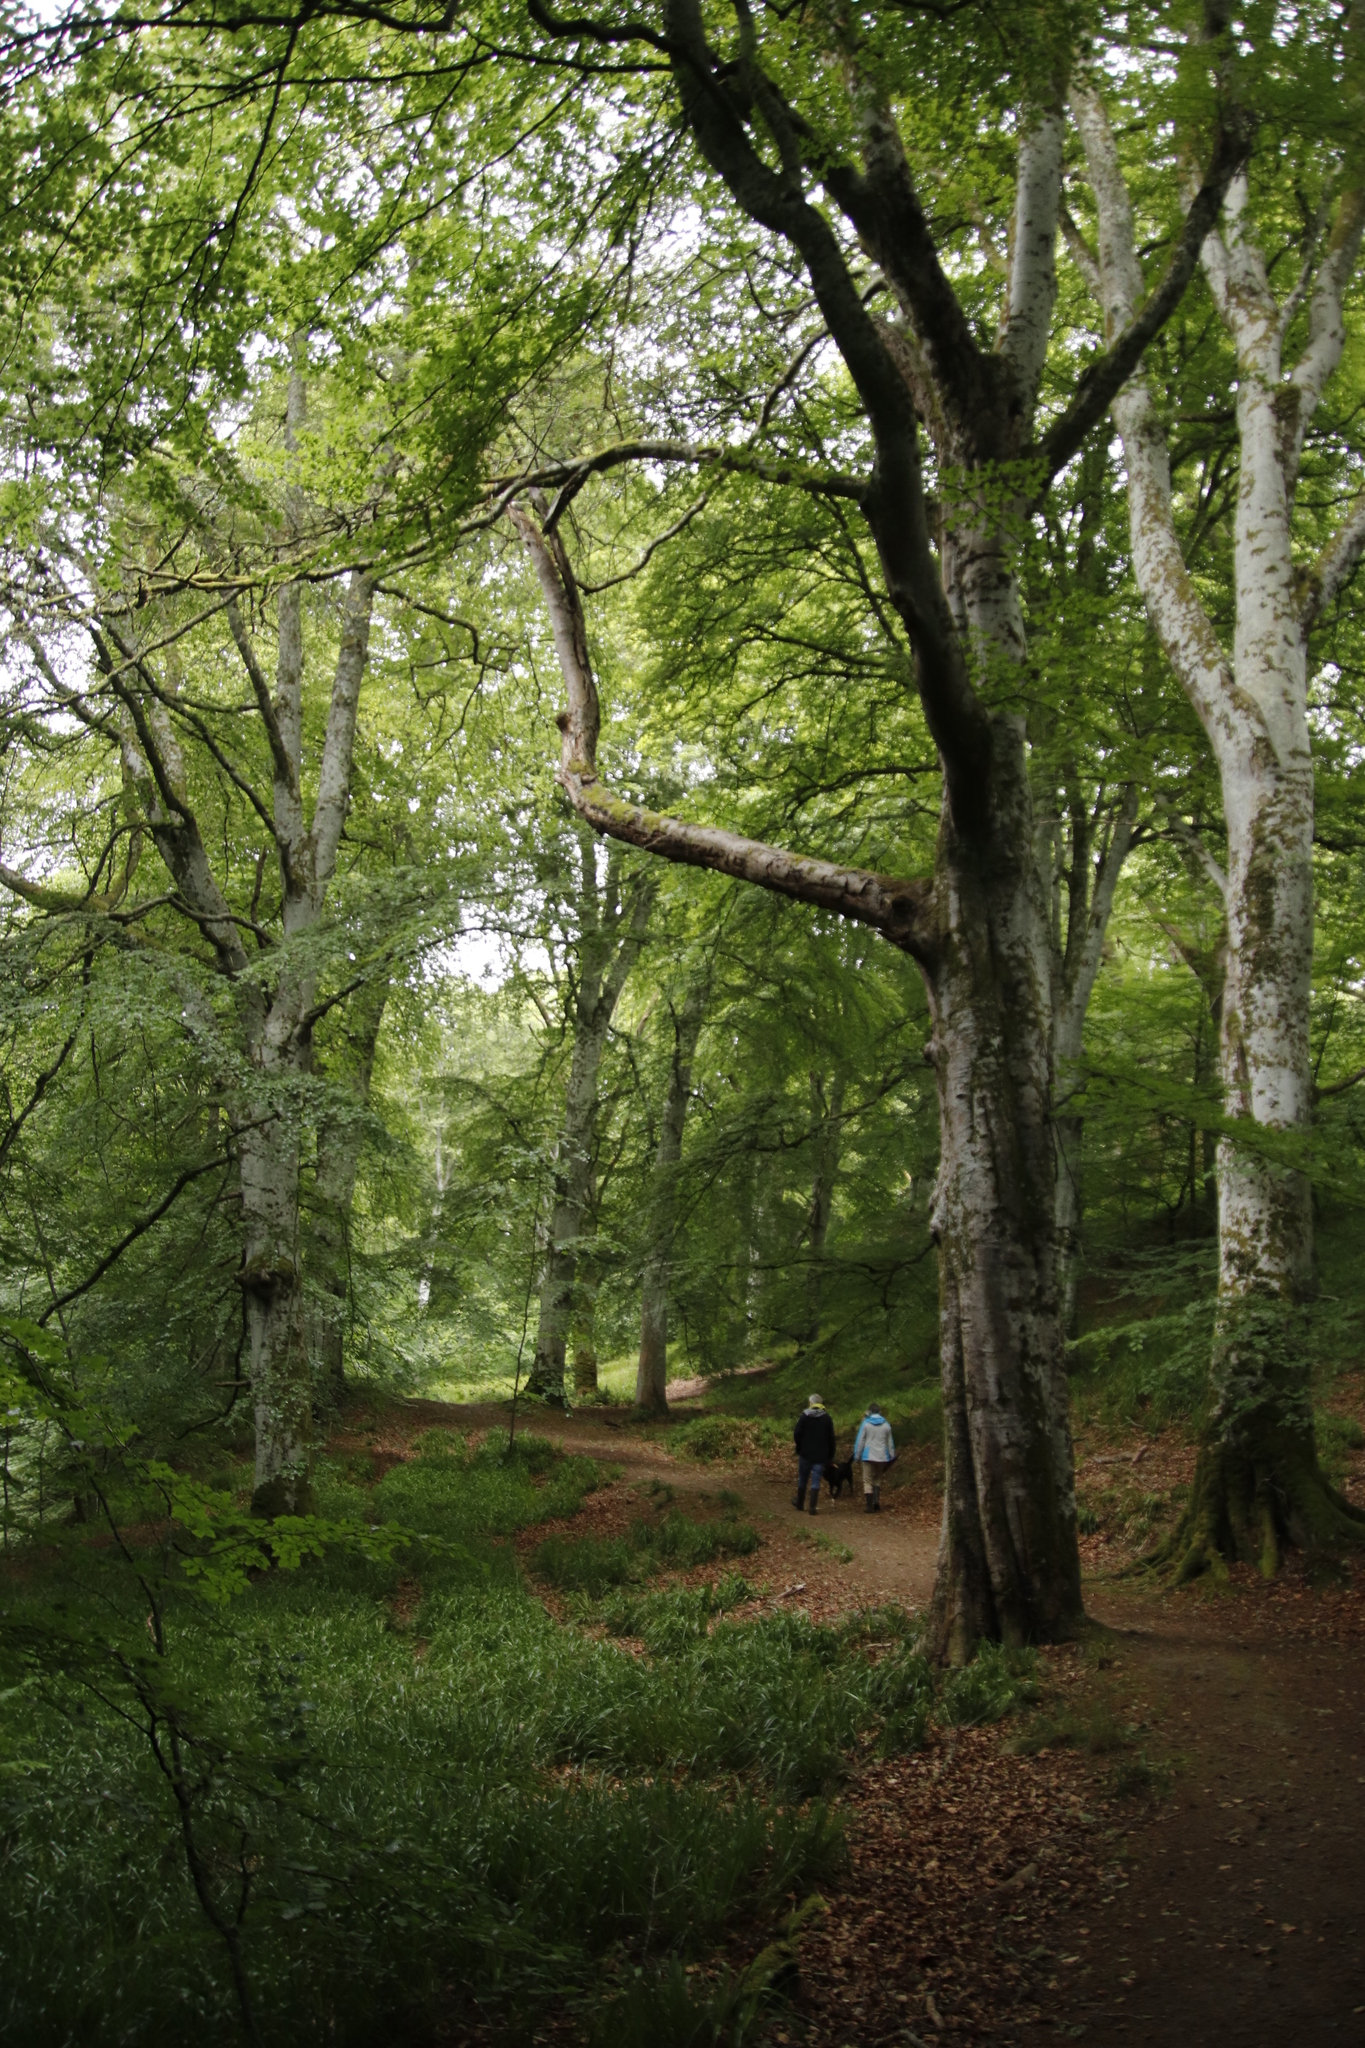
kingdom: Plantae
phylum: Tracheophyta
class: Magnoliopsida
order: Fagales
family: Fagaceae
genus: Fagus
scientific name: Fagus sylvatica
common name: Beech
